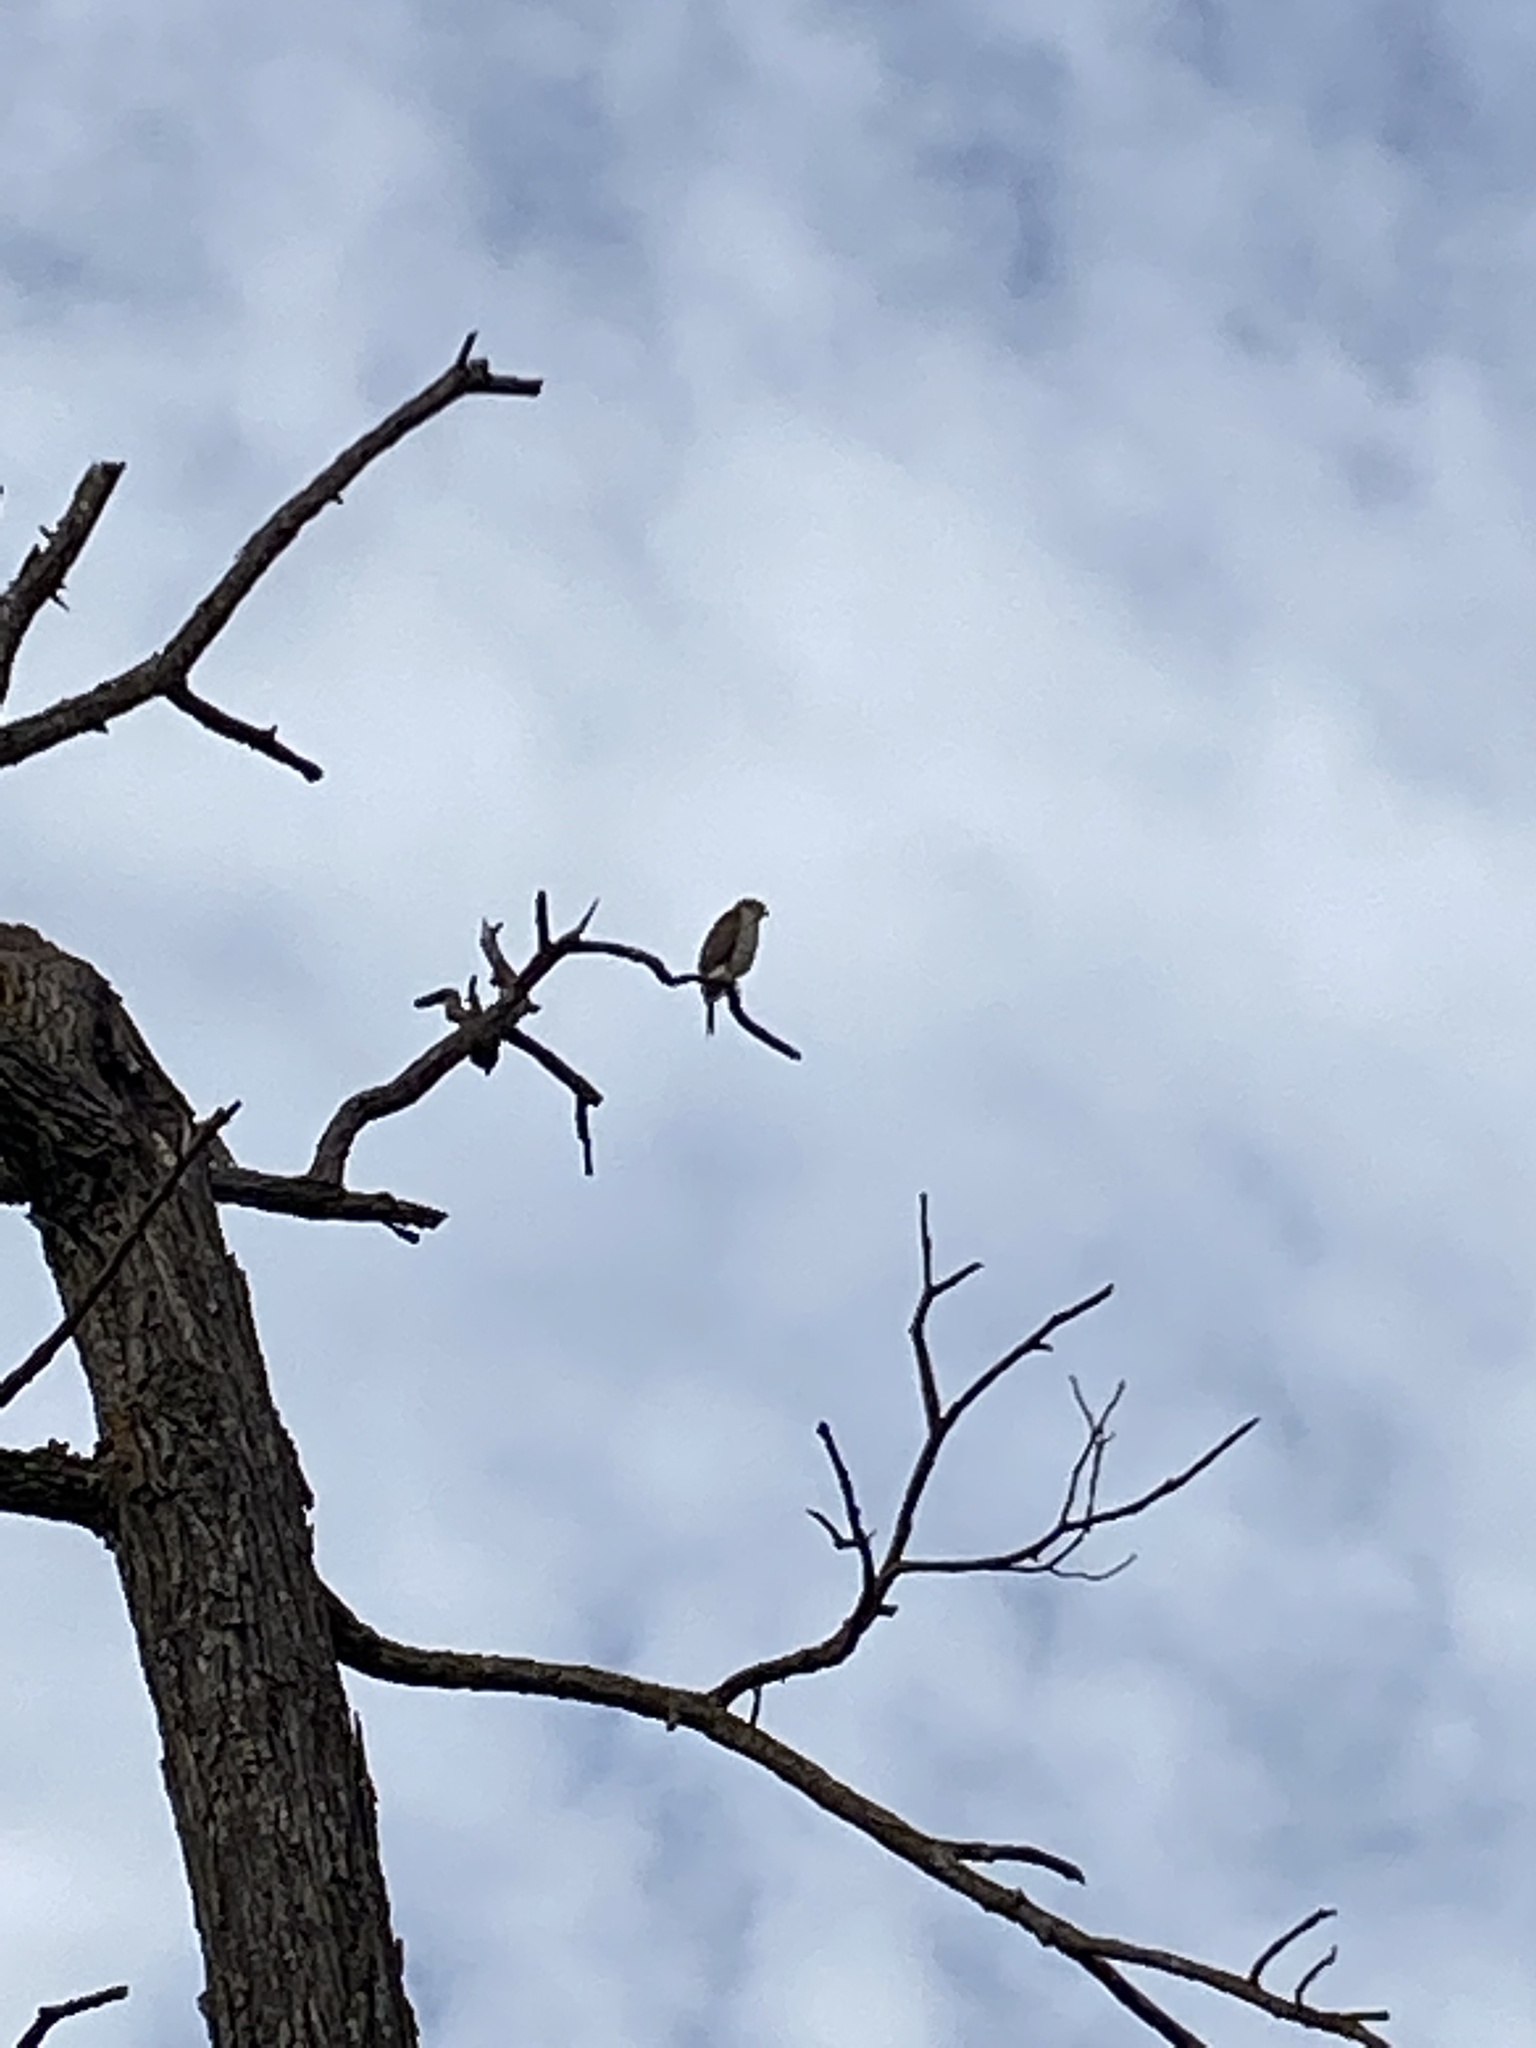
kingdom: Animalia
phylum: Chordata
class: Aves
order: Accipitriformes
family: Accipitridae
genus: Accipiter
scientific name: Accipiter cooperii
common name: Cooper's hawk
